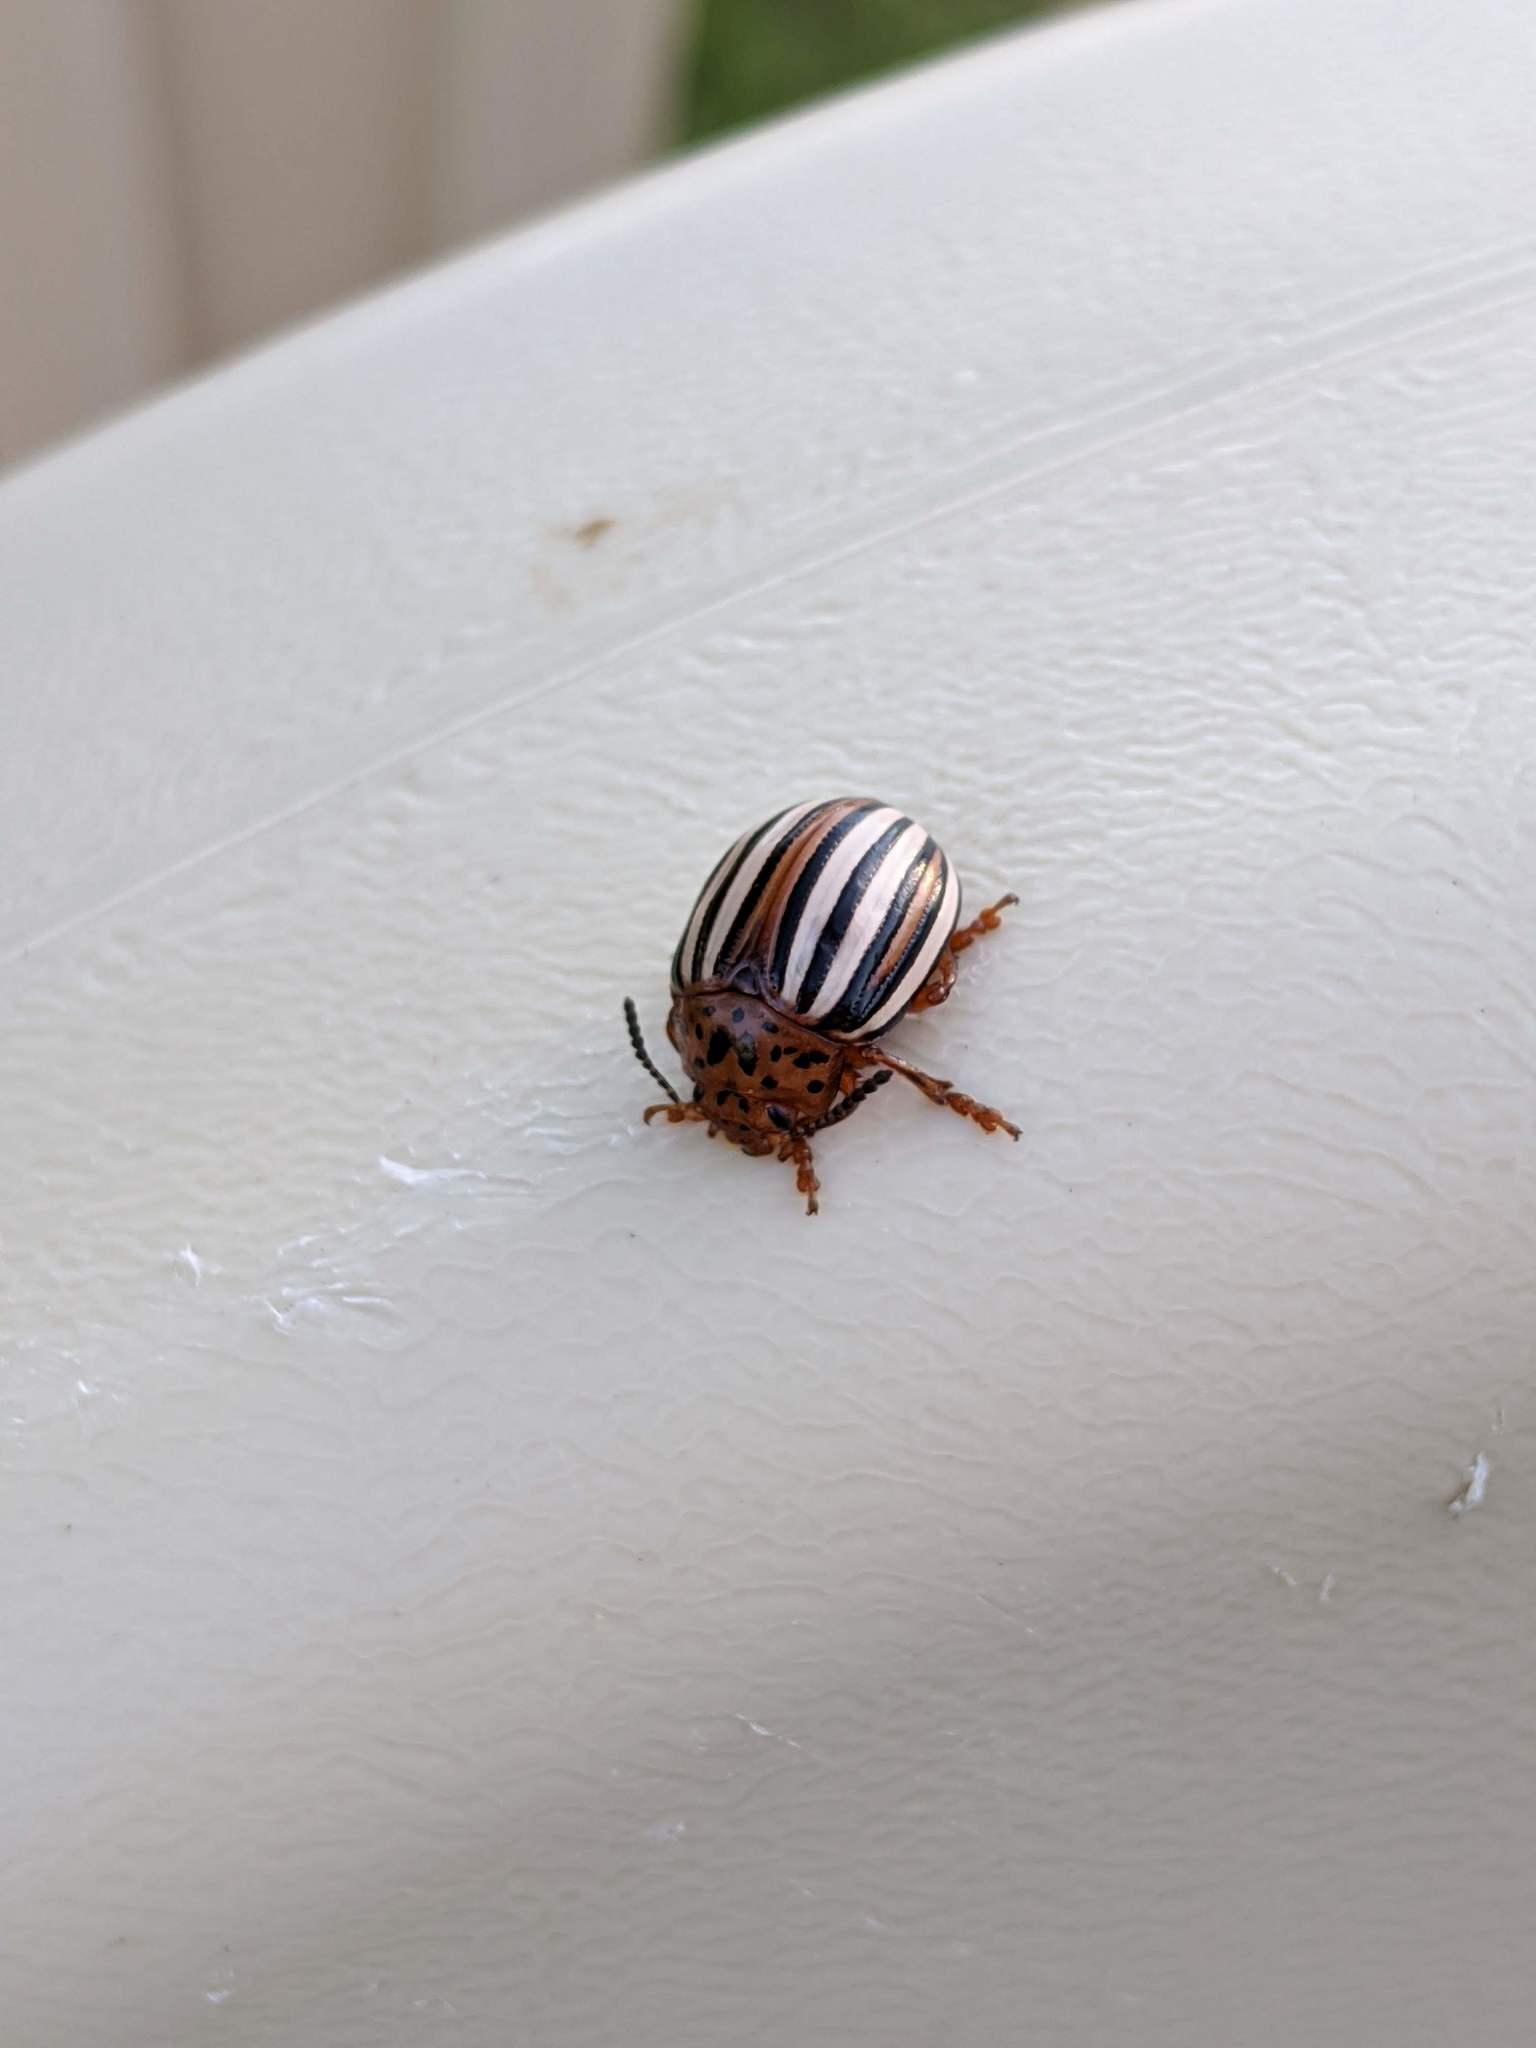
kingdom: Animalia
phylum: Arthropoda
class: Insecta
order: Coleoptera
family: Chrysomelidae
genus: Leptinotarsa
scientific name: Leptinotarsa juncta
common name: False potato beetle
